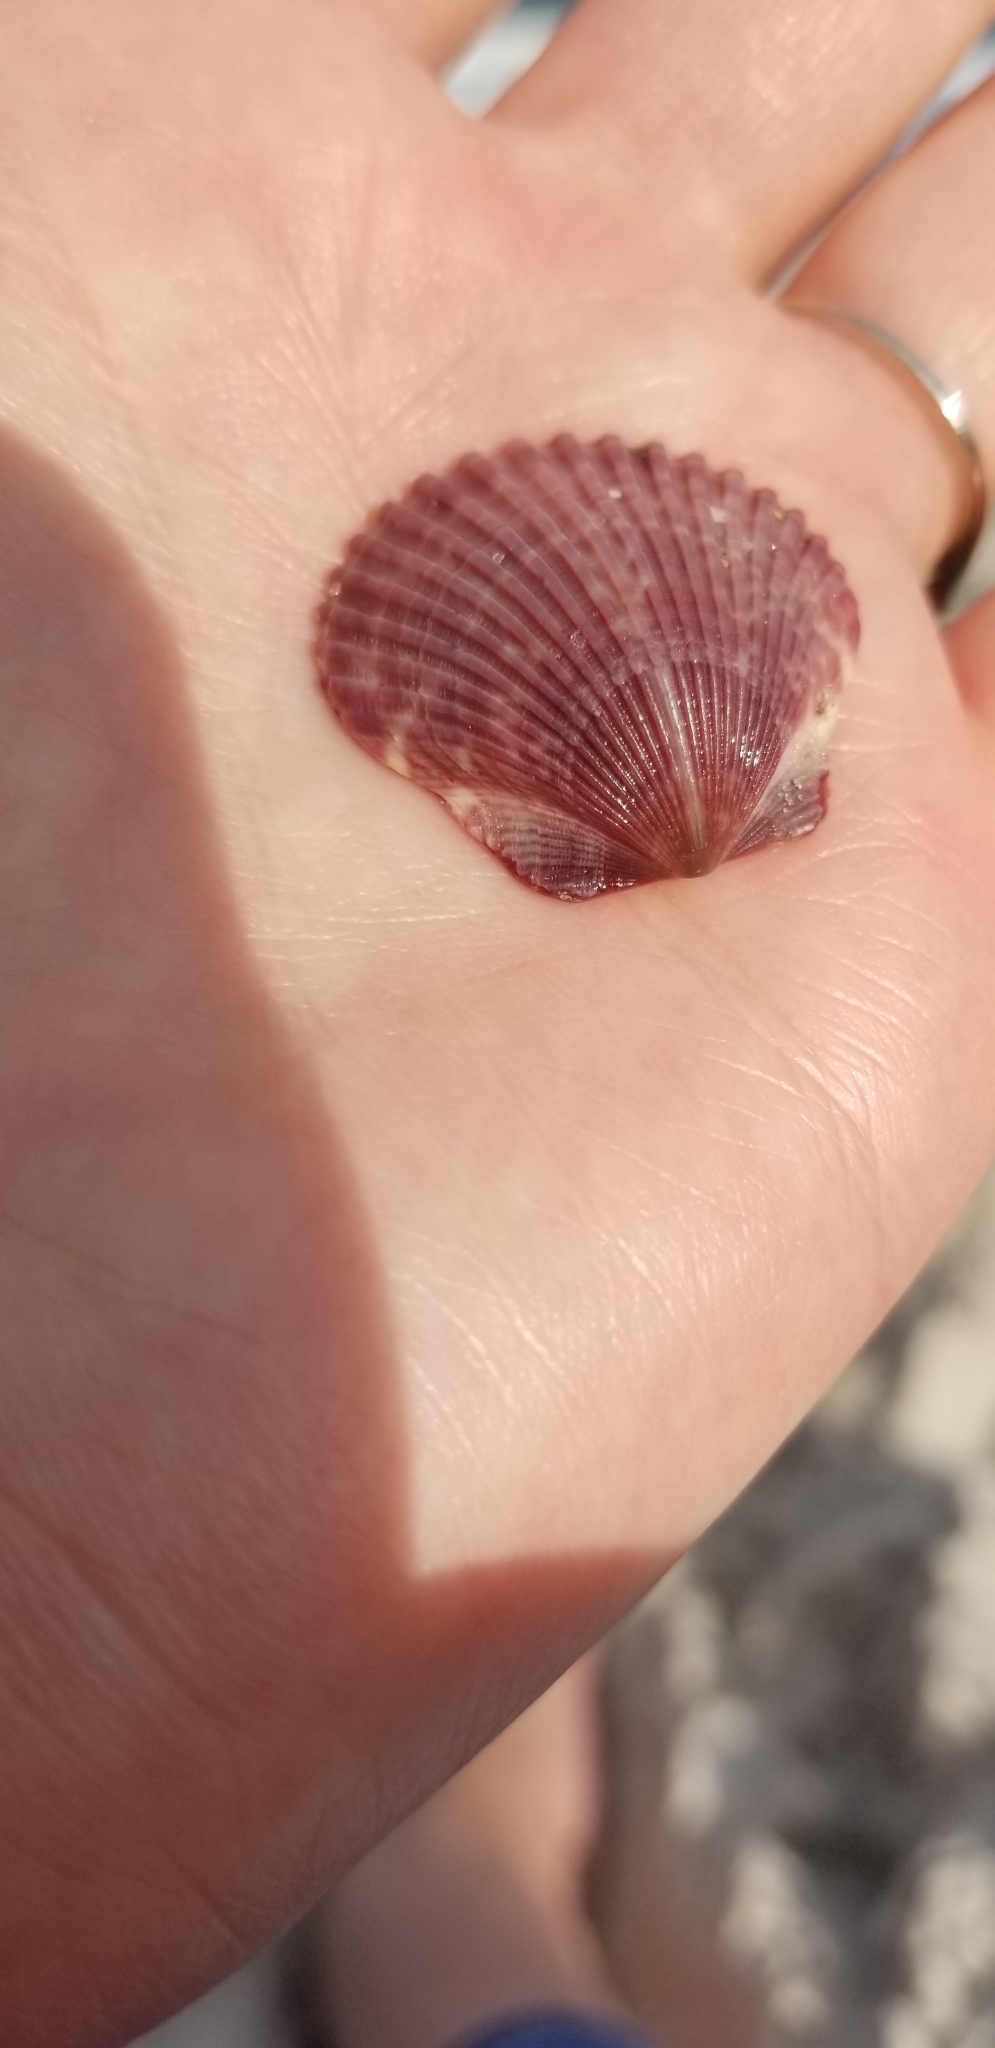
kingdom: Animalia
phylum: Mollusca
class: Bivalvia
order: Pectinida
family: Pectinidae
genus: Argopecten
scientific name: Argopecten irradians
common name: Atlantic bay scallop
